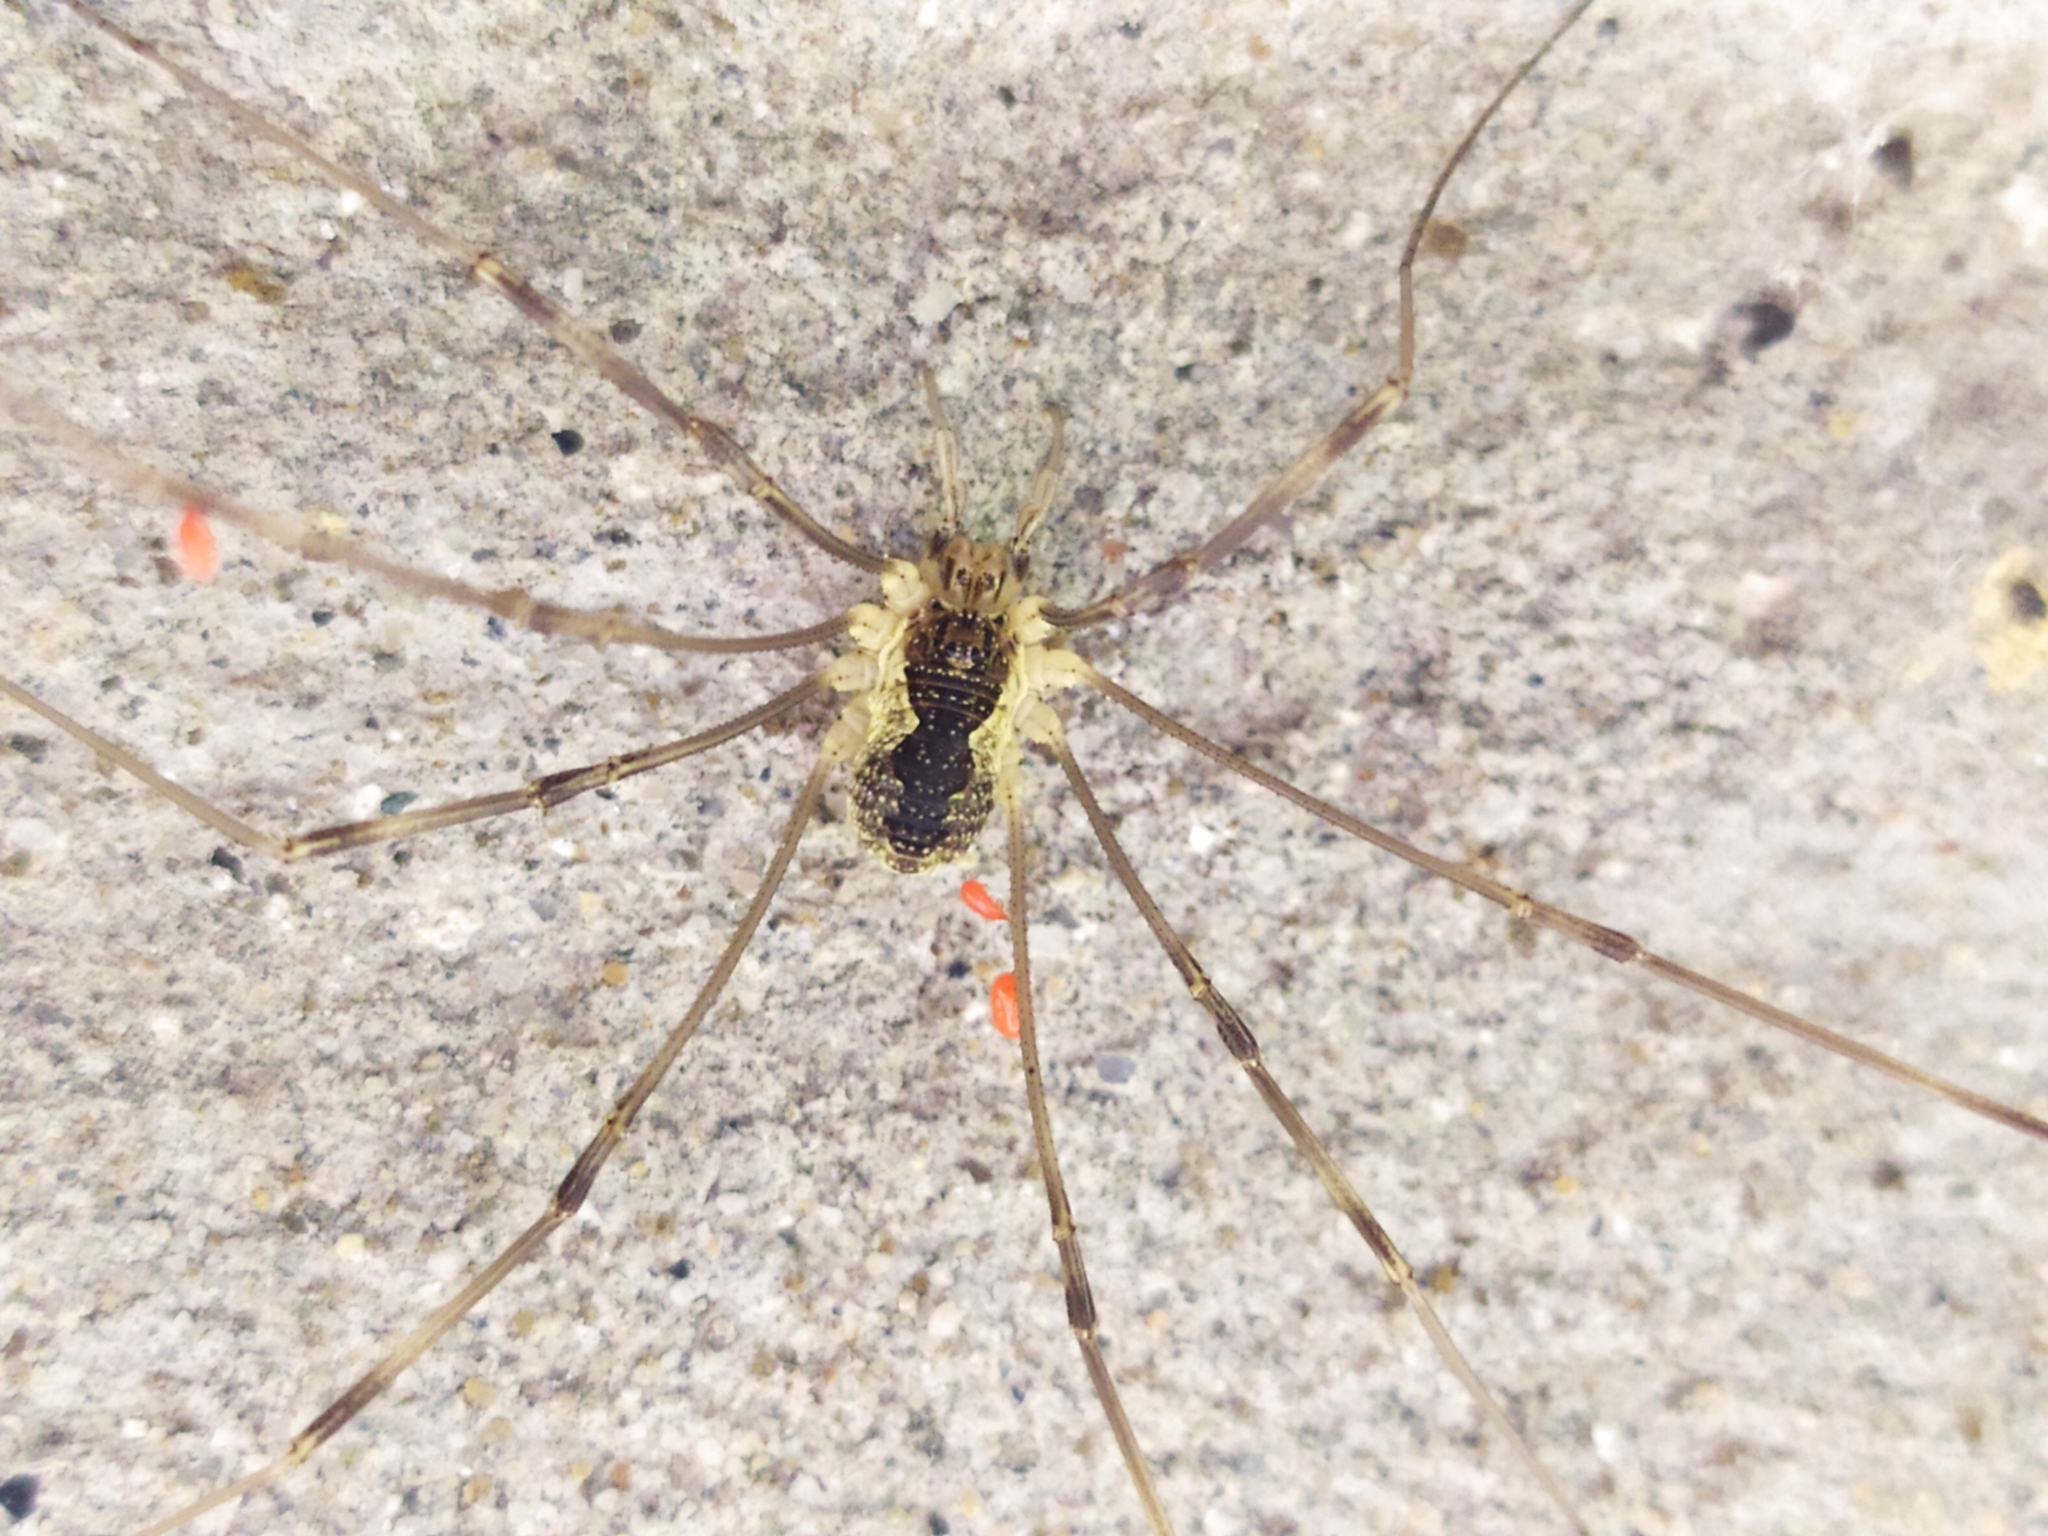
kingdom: Animalia
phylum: Arthropoda
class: Arachnida
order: Opiliones
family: Phalangiidae
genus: Mitopus
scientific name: Mitopus morio
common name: Saddleback harvestman
